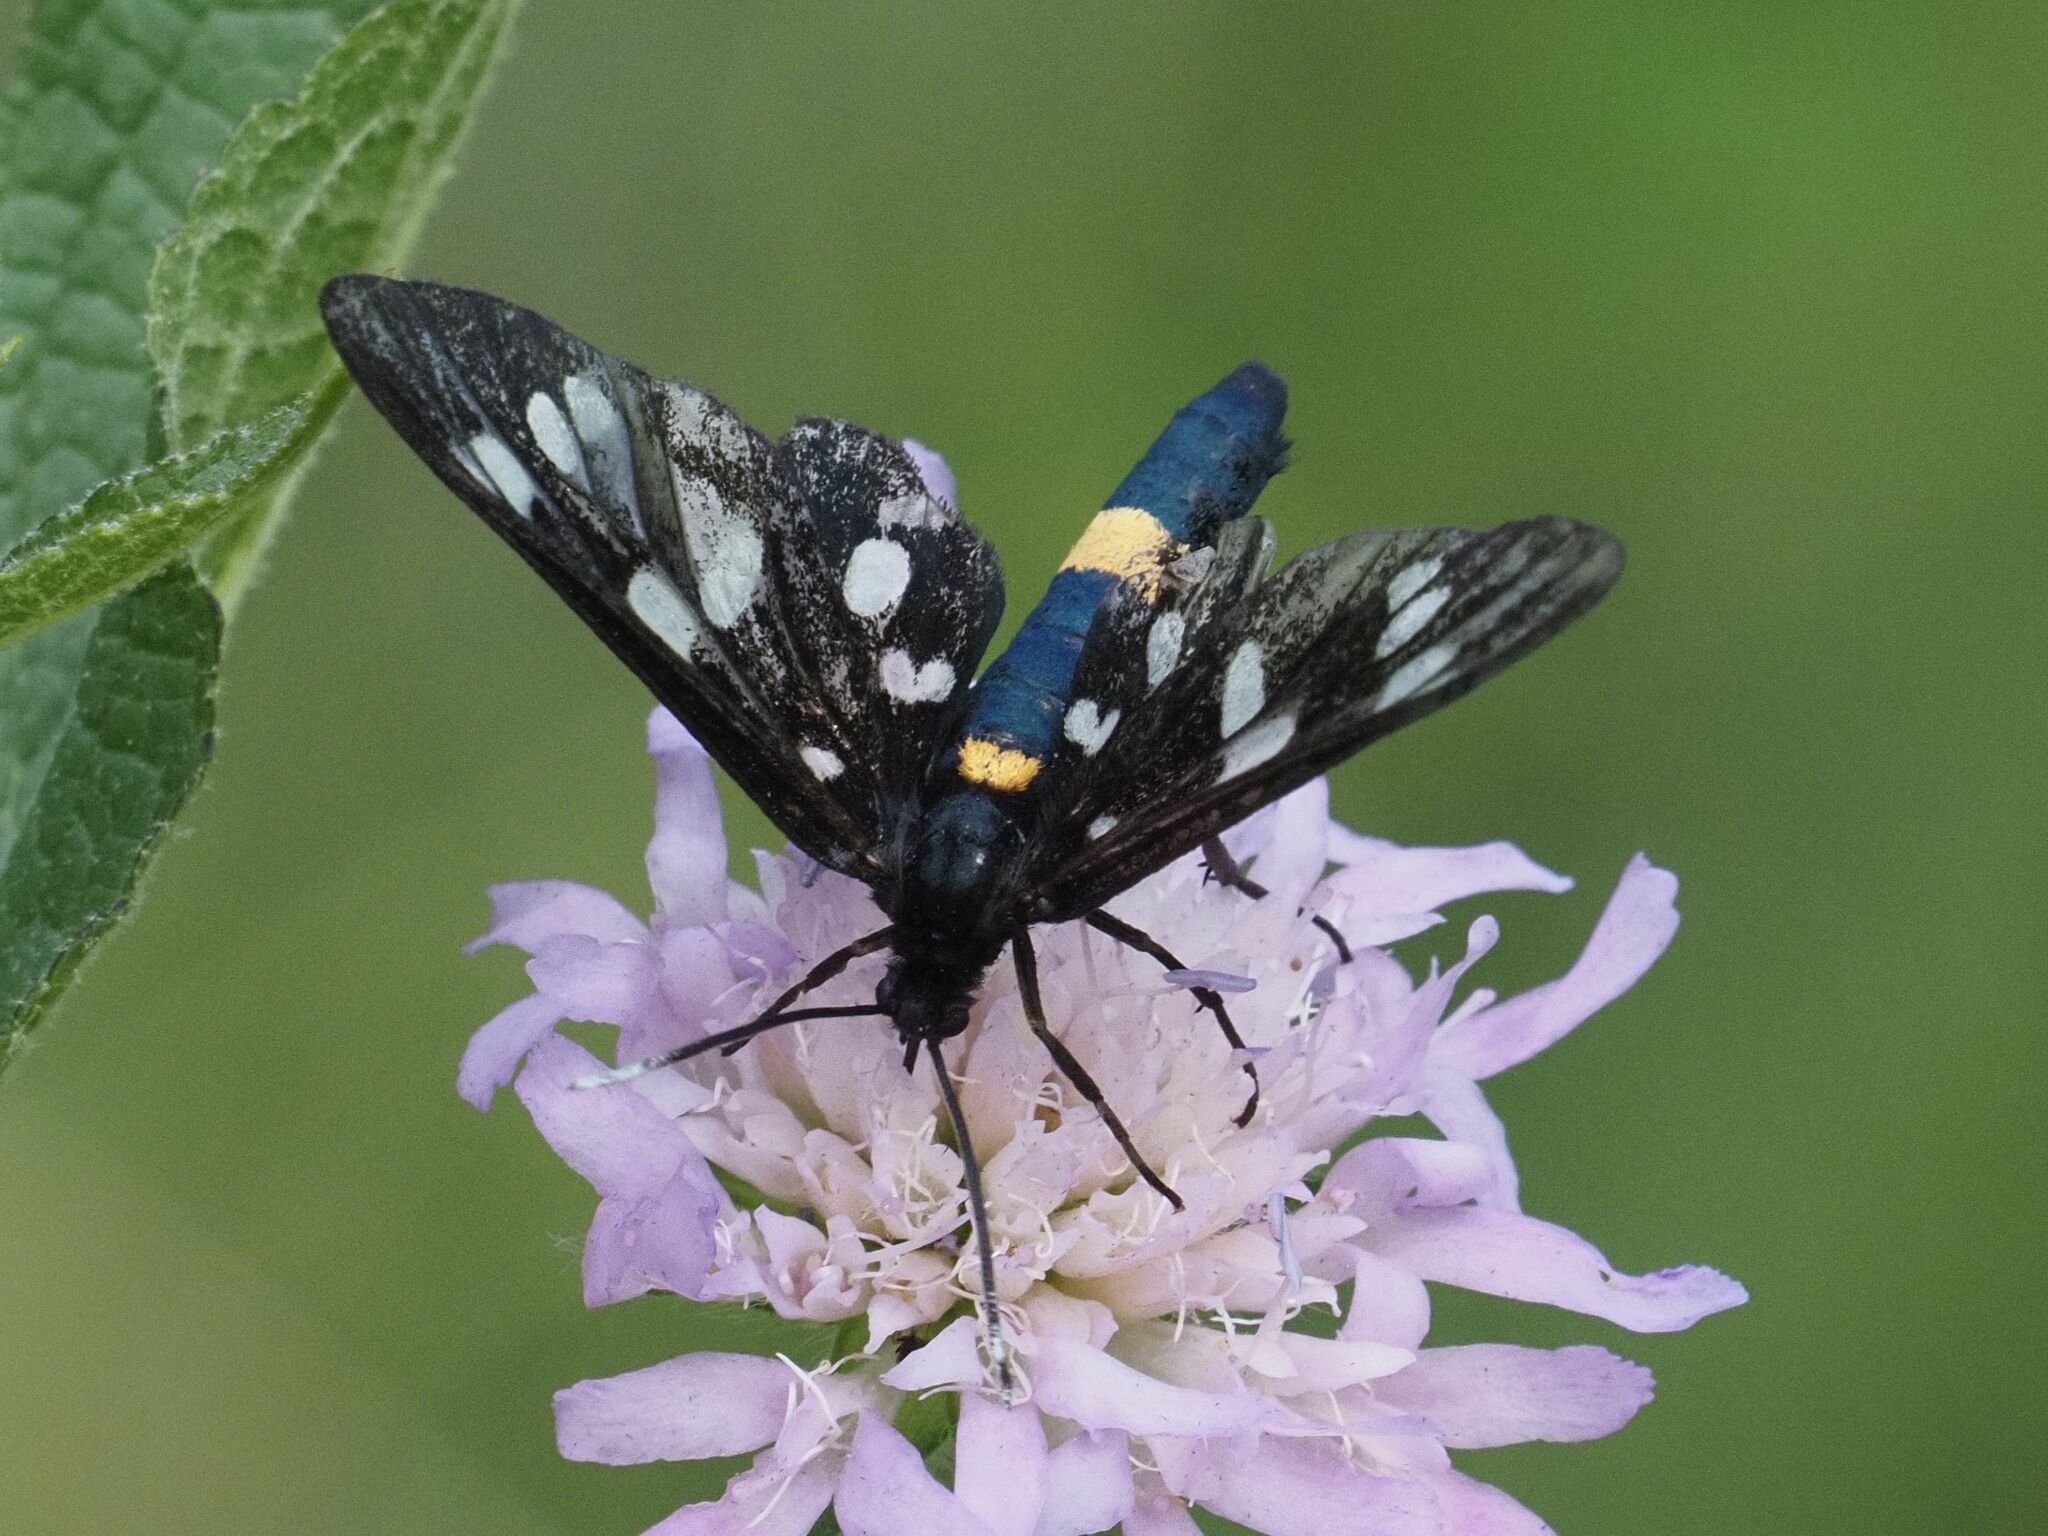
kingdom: Animalia
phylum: Arthropoda
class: Insecta
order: Lepidoptera
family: Erebidae
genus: Amata
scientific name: Amata phegea
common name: Nine-spotted
